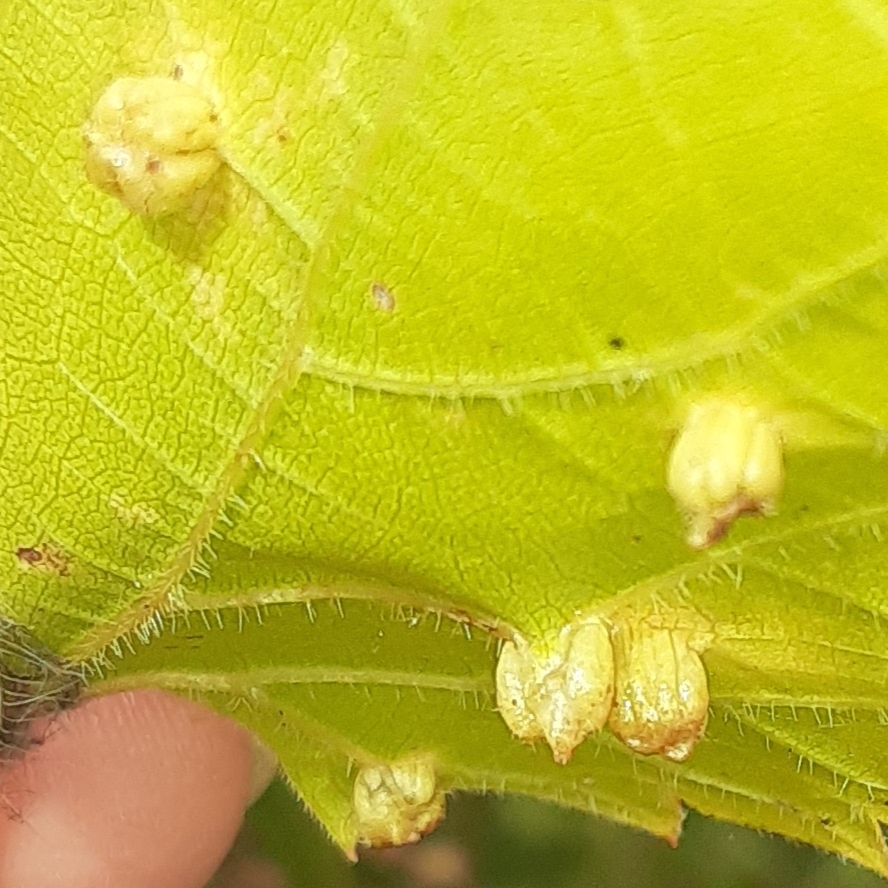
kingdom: Animalia
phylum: Arthropoda
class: Insecta
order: Hemiptera
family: Phylloxeridae
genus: Daktulosphaira
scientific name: Daktulosphaira vitifoliae
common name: Grape phylloxera
